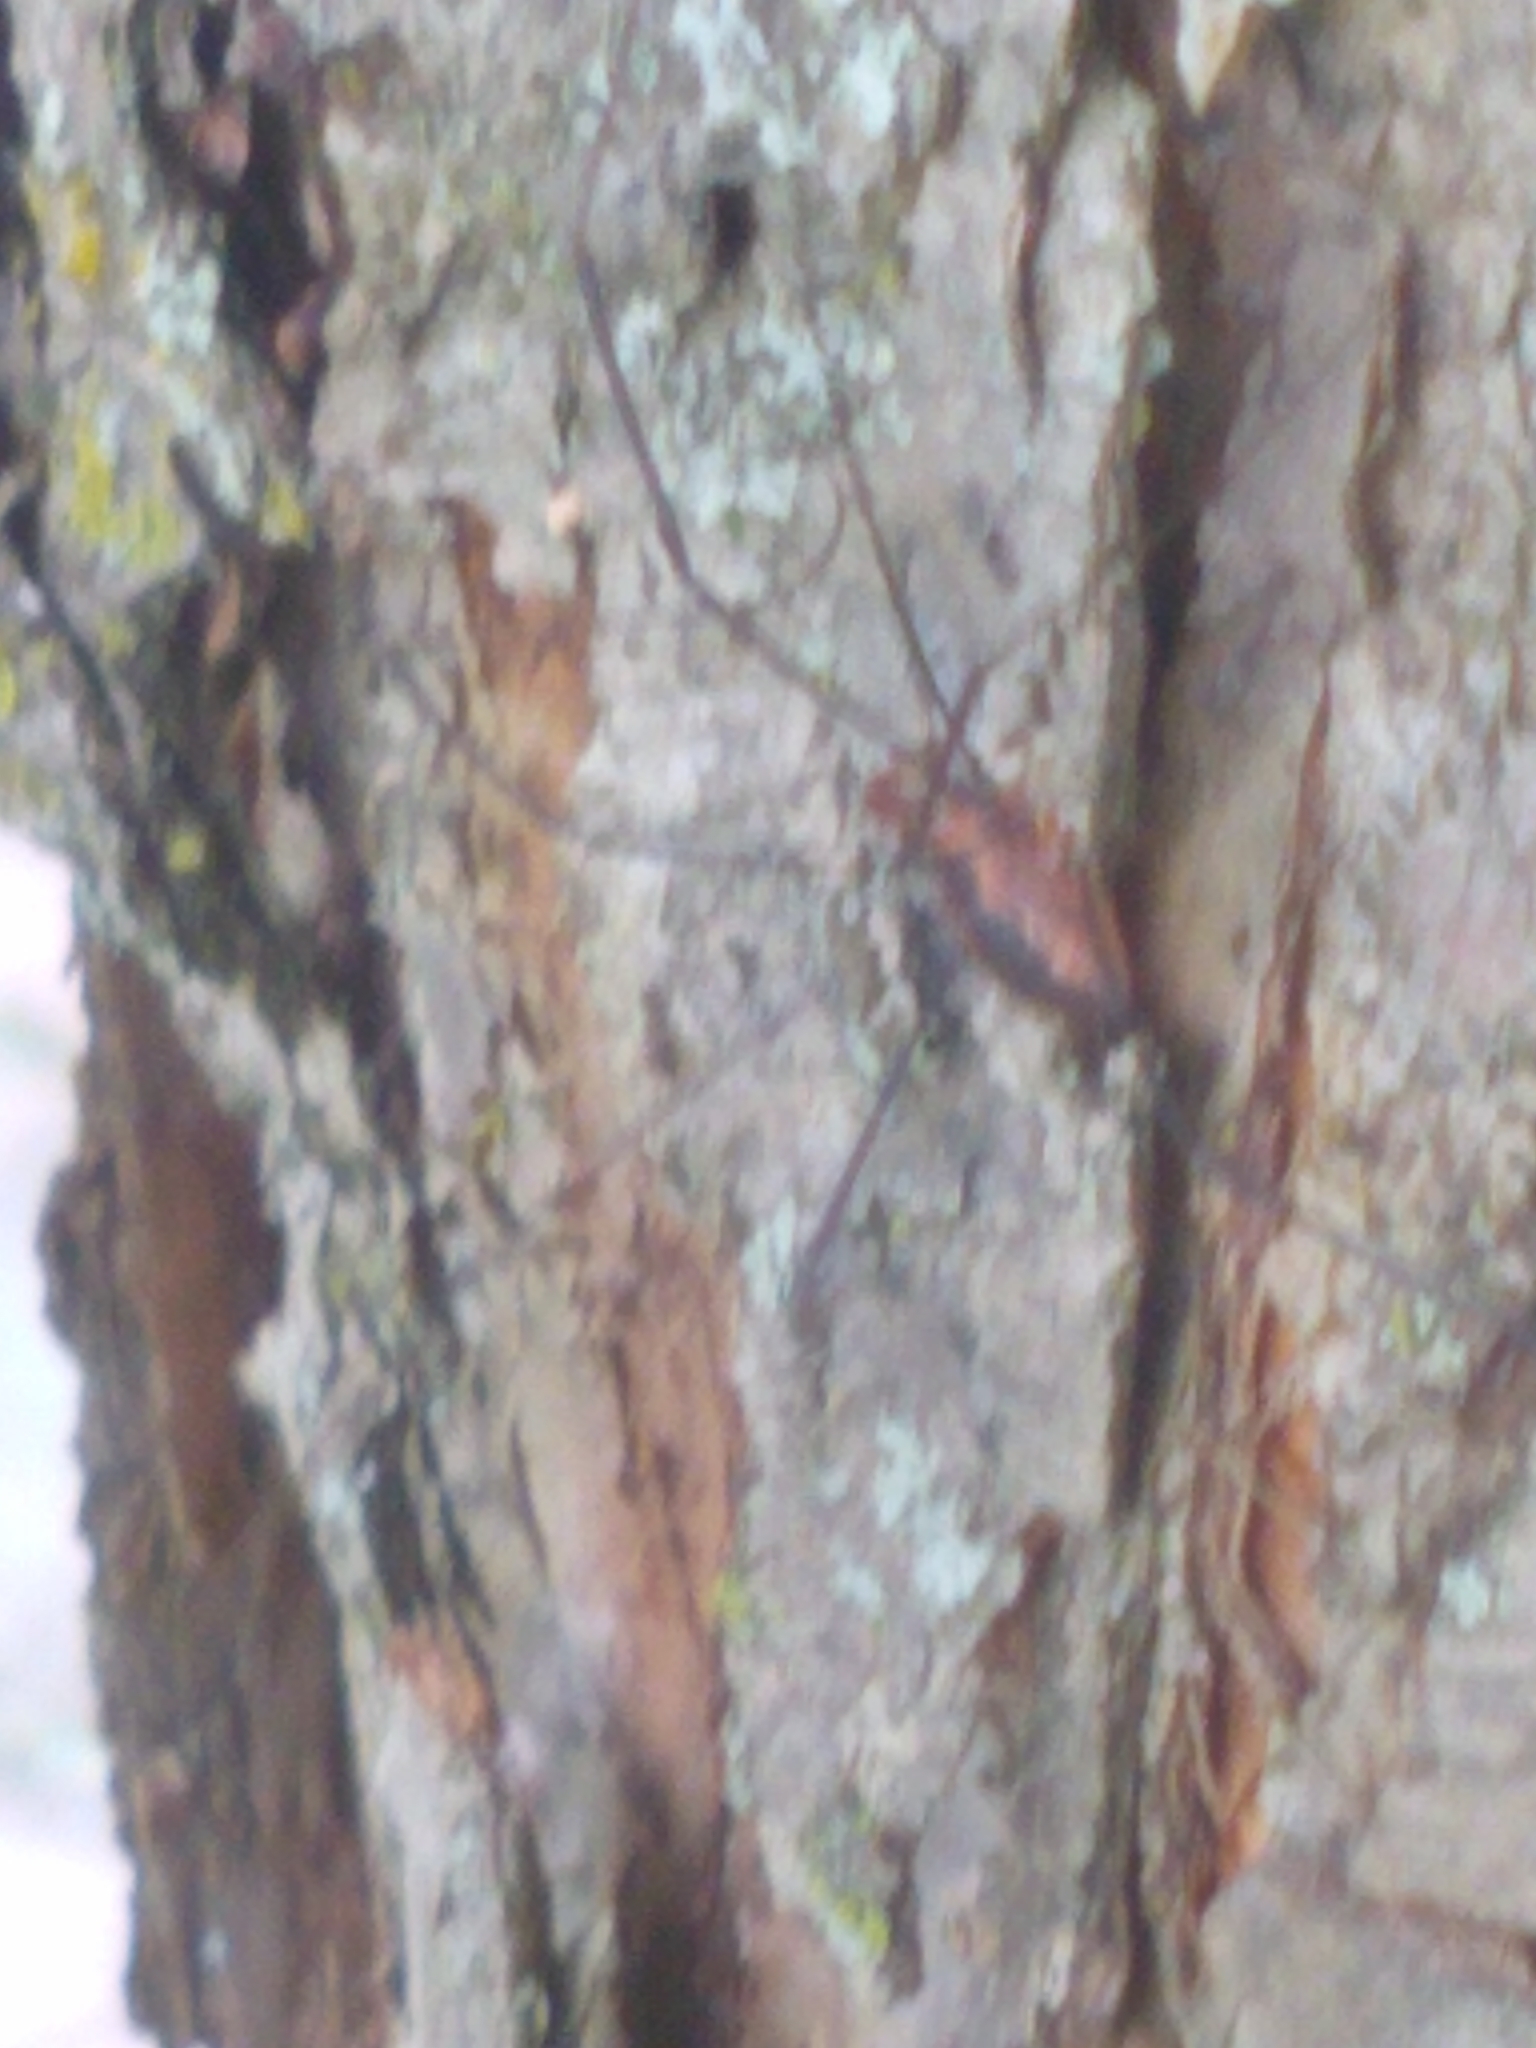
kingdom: Animalia
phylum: Arthropoda
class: Arachnida
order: Opiliones
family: Sclerosomatidae
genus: Leiobunum
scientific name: Leiobunum vittatum
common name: Eastern harvestman
